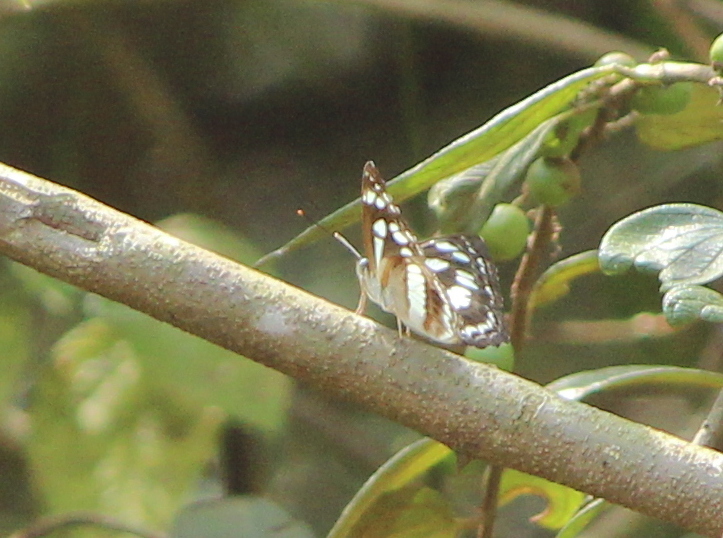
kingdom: Animalia
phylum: Arthropoda
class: Insecta
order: Lepidoptera
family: Nymphalidae
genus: Neptis
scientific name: Neptis jumbah
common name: Chestnut-streaked sailer
